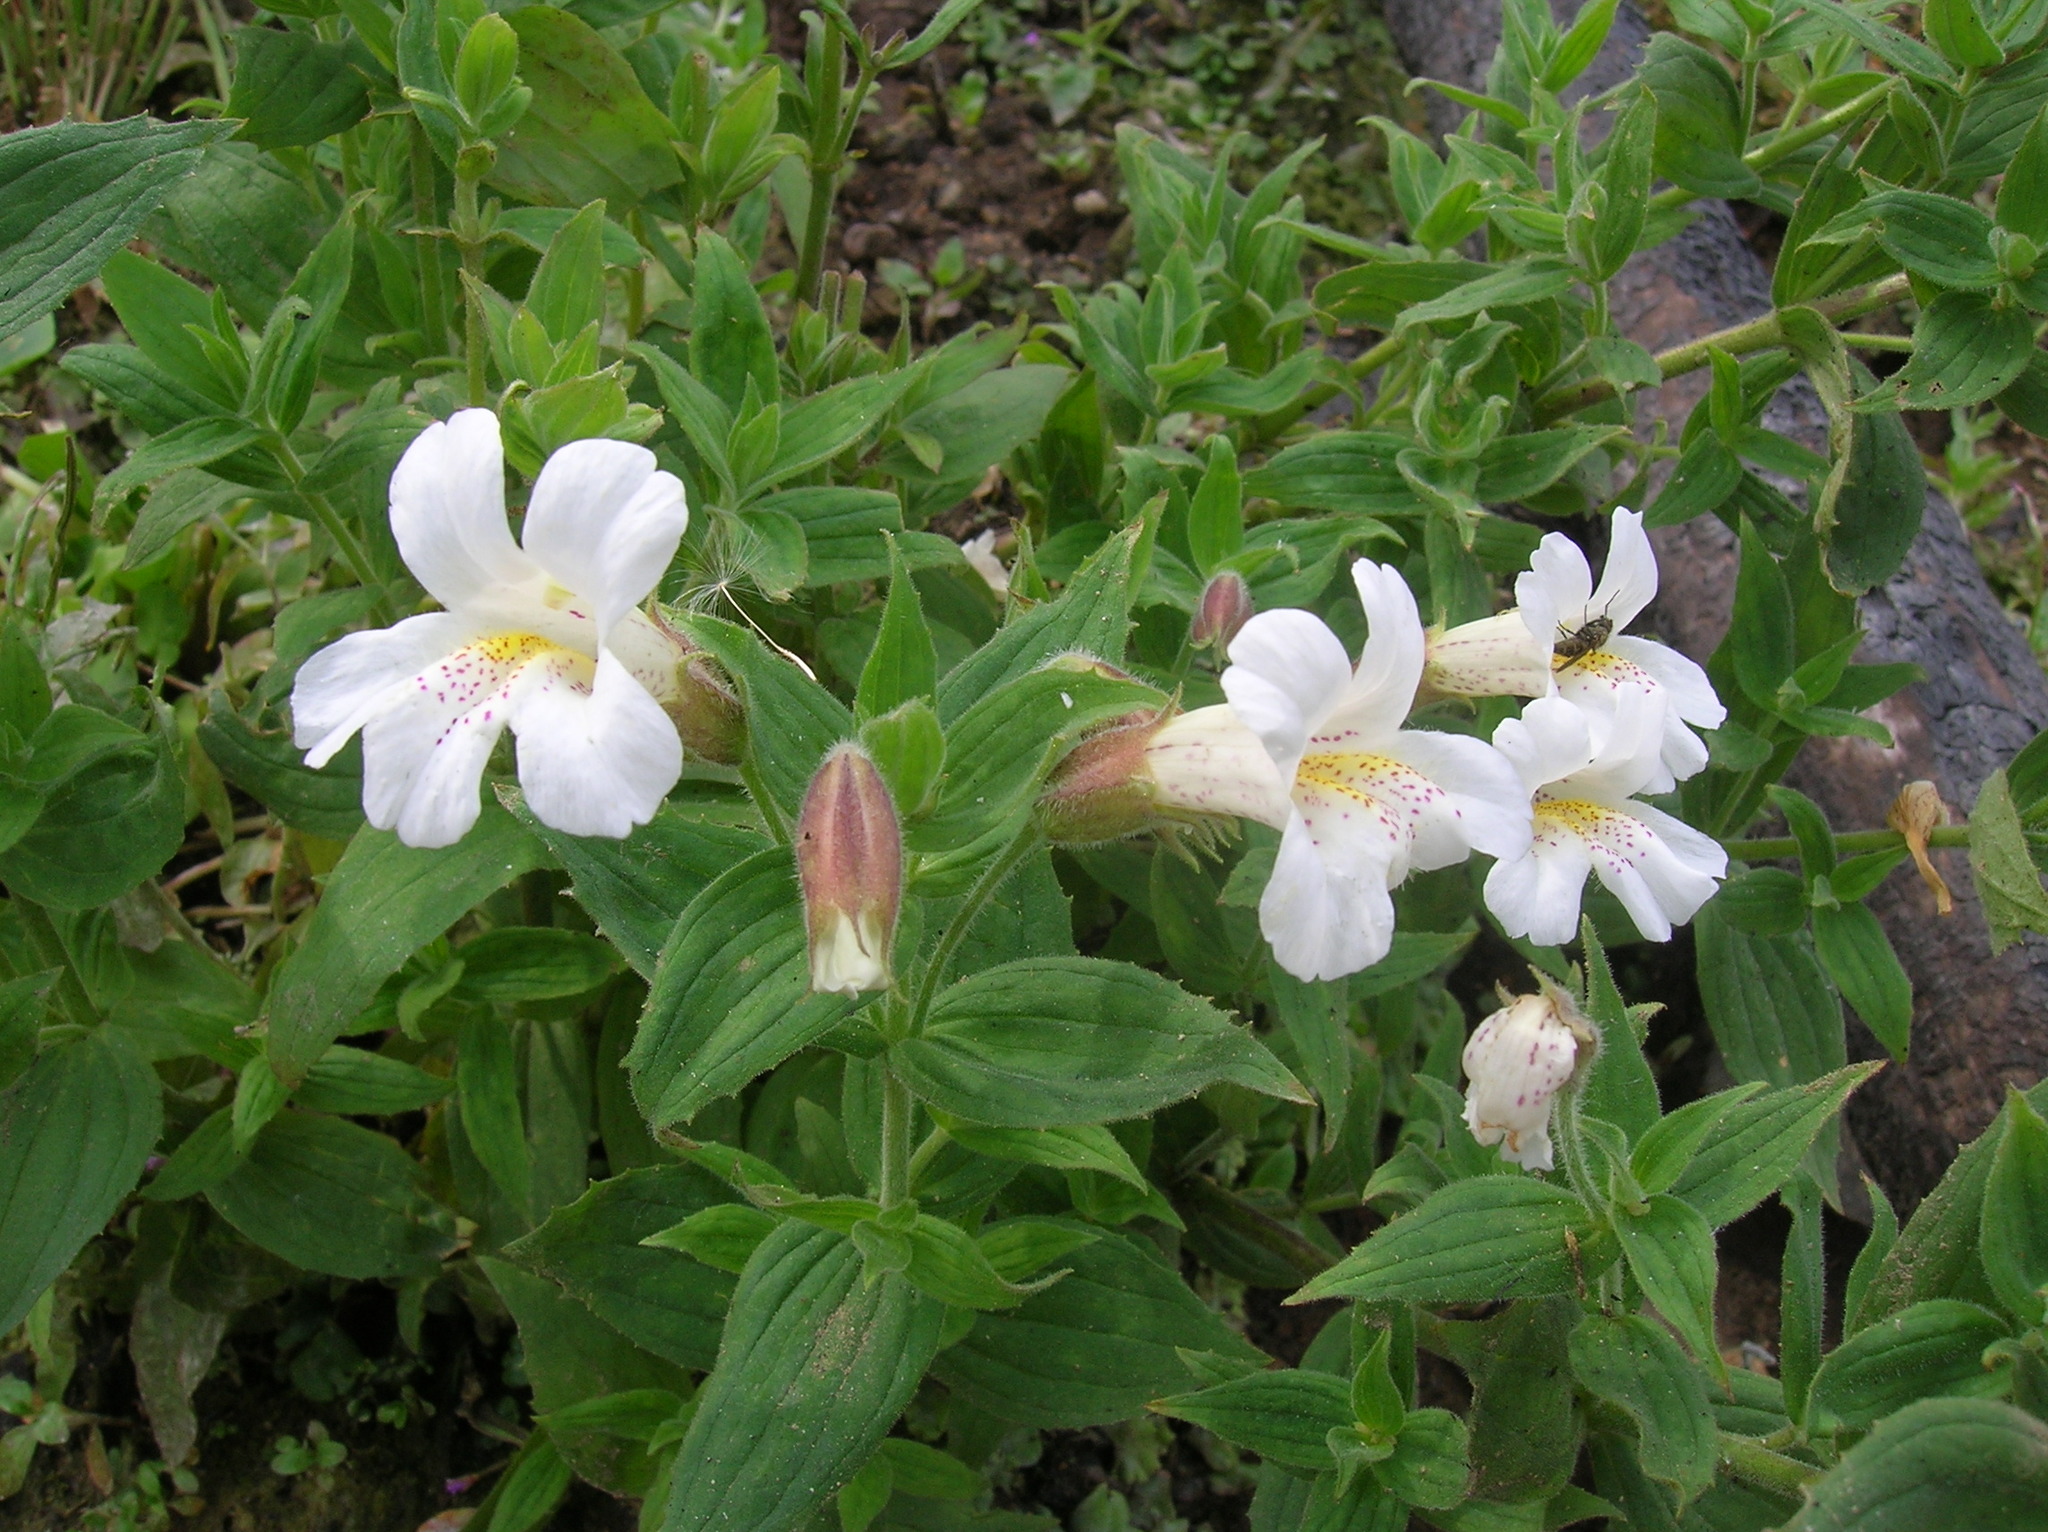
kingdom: Plantae
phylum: Tracheophyta
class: Magnoliopsida
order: Lamiales
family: Phrymaceae
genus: Erythranthe
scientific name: Erythranthe lewisii
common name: Lewis's monkey-flower
